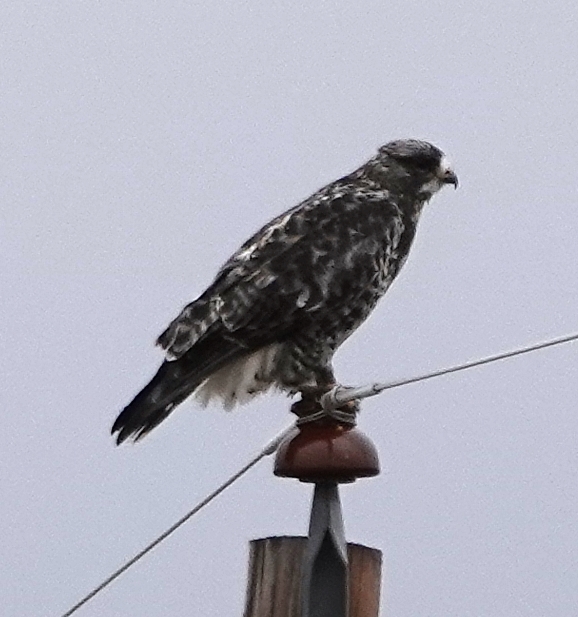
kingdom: Animalia
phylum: Chordata
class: Aves
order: Accipitriformes
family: Accipitridae
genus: Buteo
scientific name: Buteo lagopus
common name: Rough-legged buzzard
